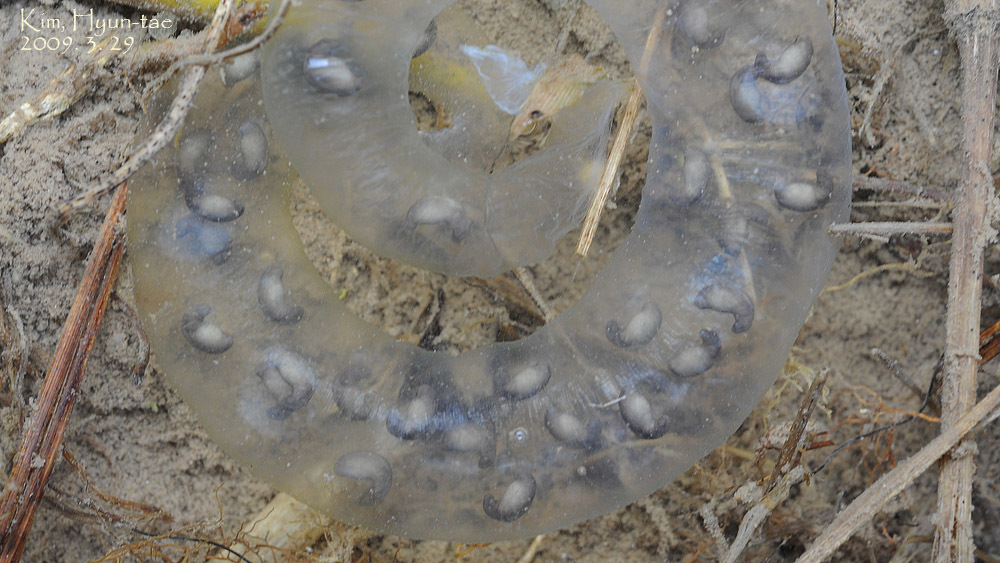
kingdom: Animalia
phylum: Chordata
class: Amphibia
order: Caudata
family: Hynobiidae
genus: Hynobius
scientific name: Hynobius leechii
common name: Gensan salamander
